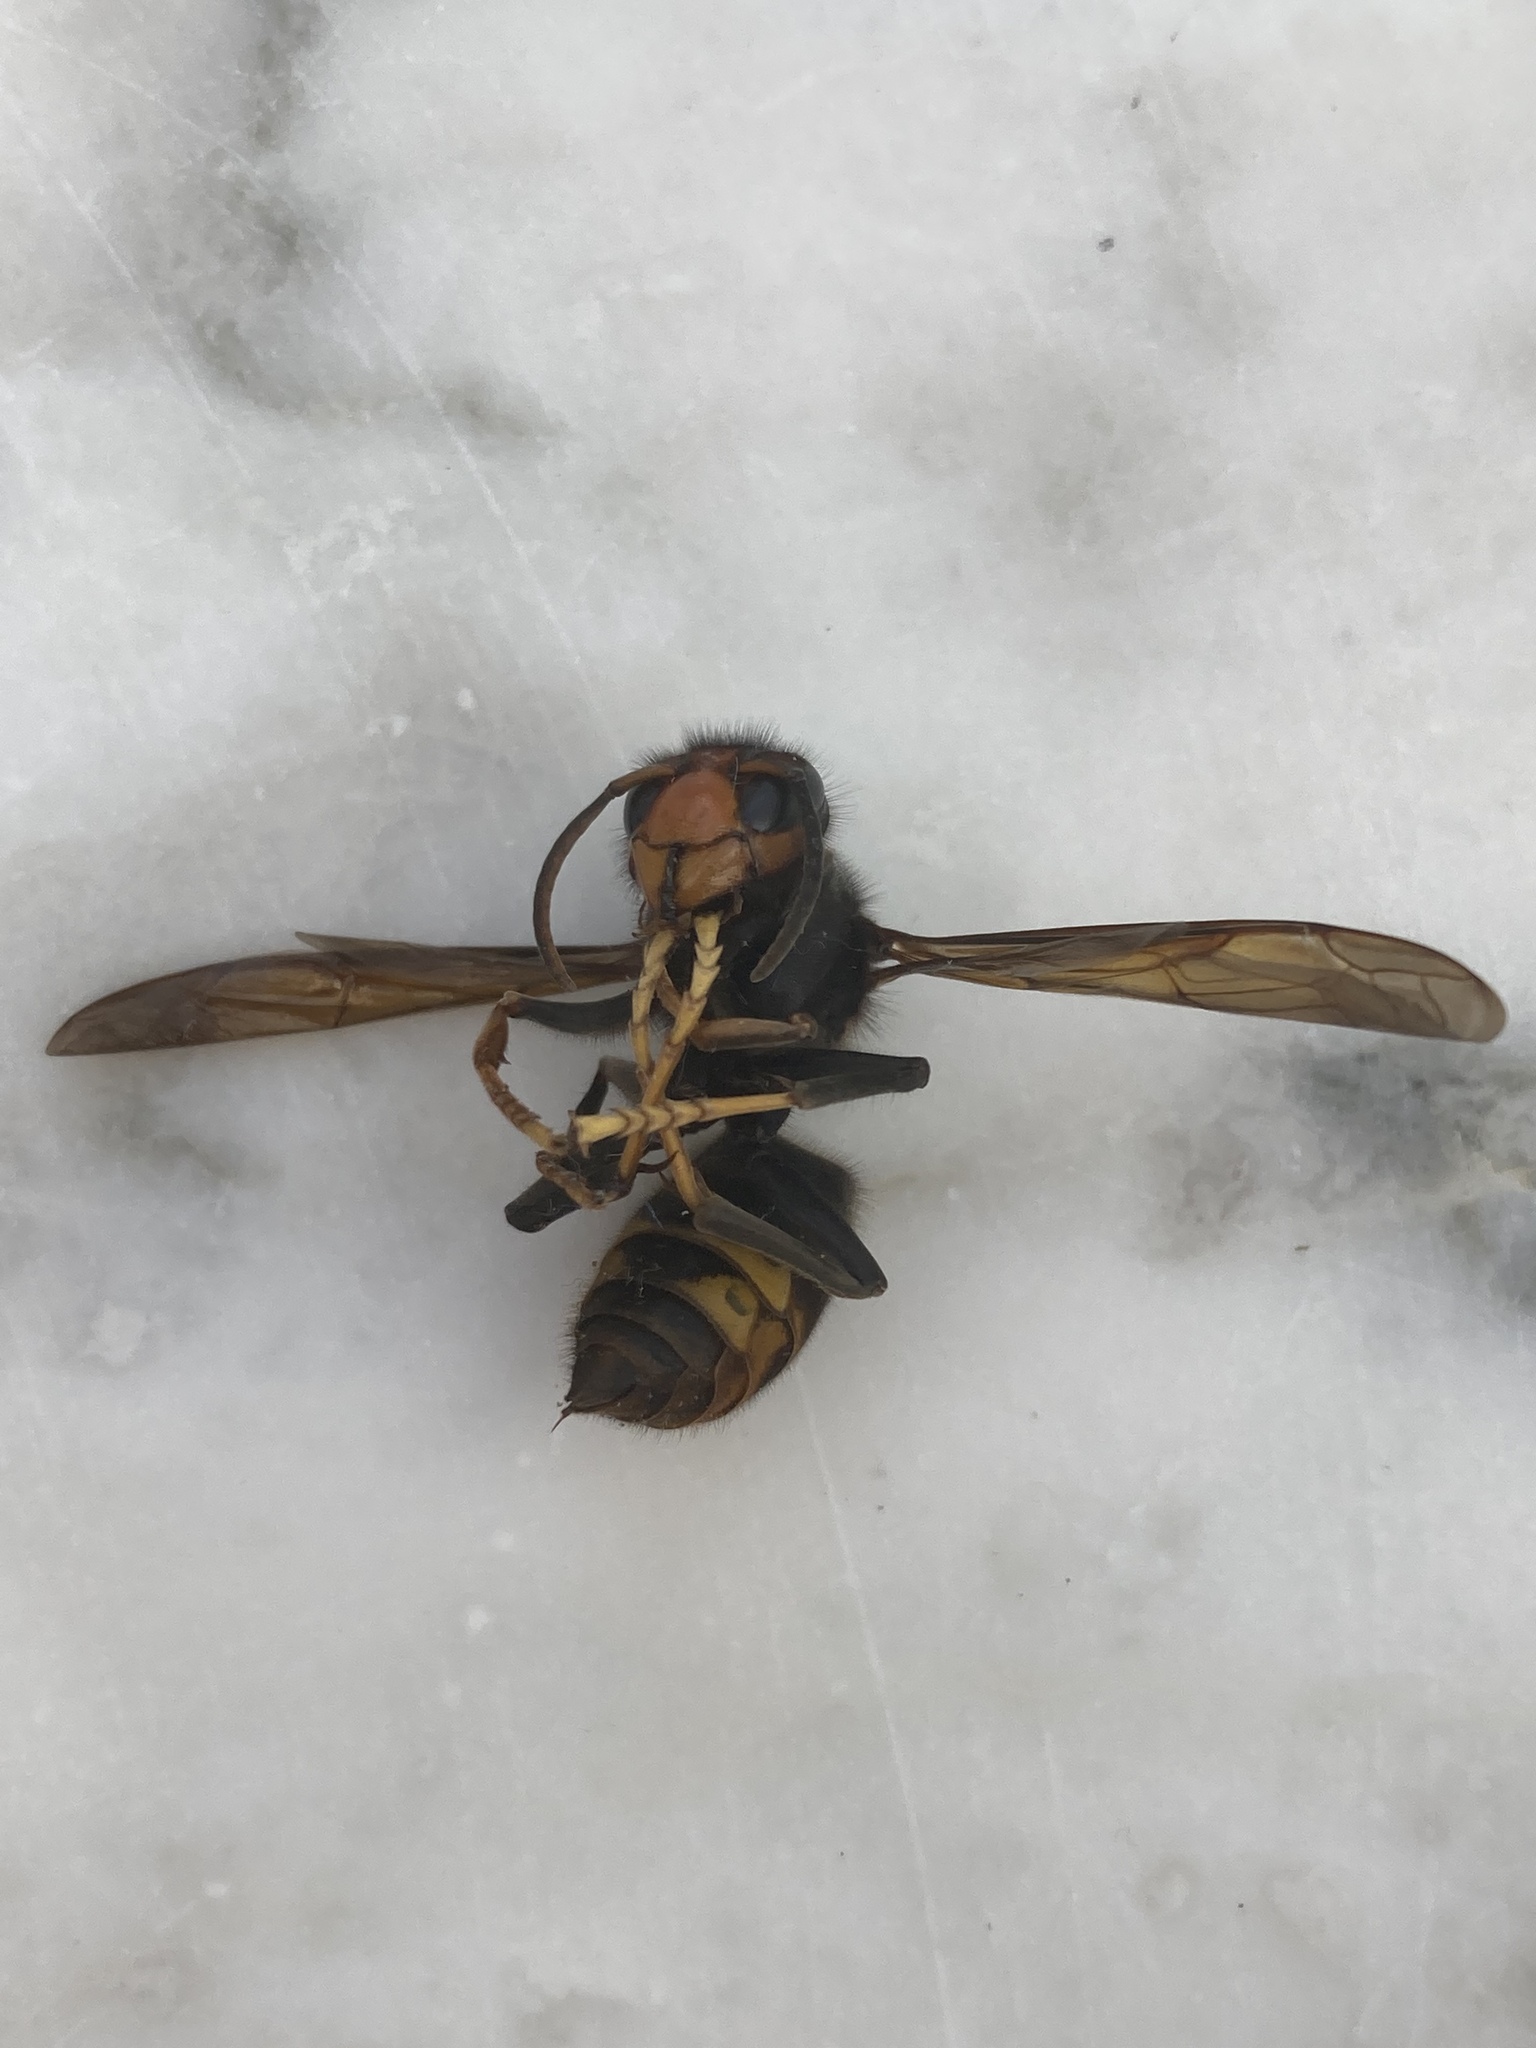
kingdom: Animalia
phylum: Arthropoda
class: Insecta
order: Hymenoptera
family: Vespidae
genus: Vespa
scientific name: Vespa velutina
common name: Asian hornet
